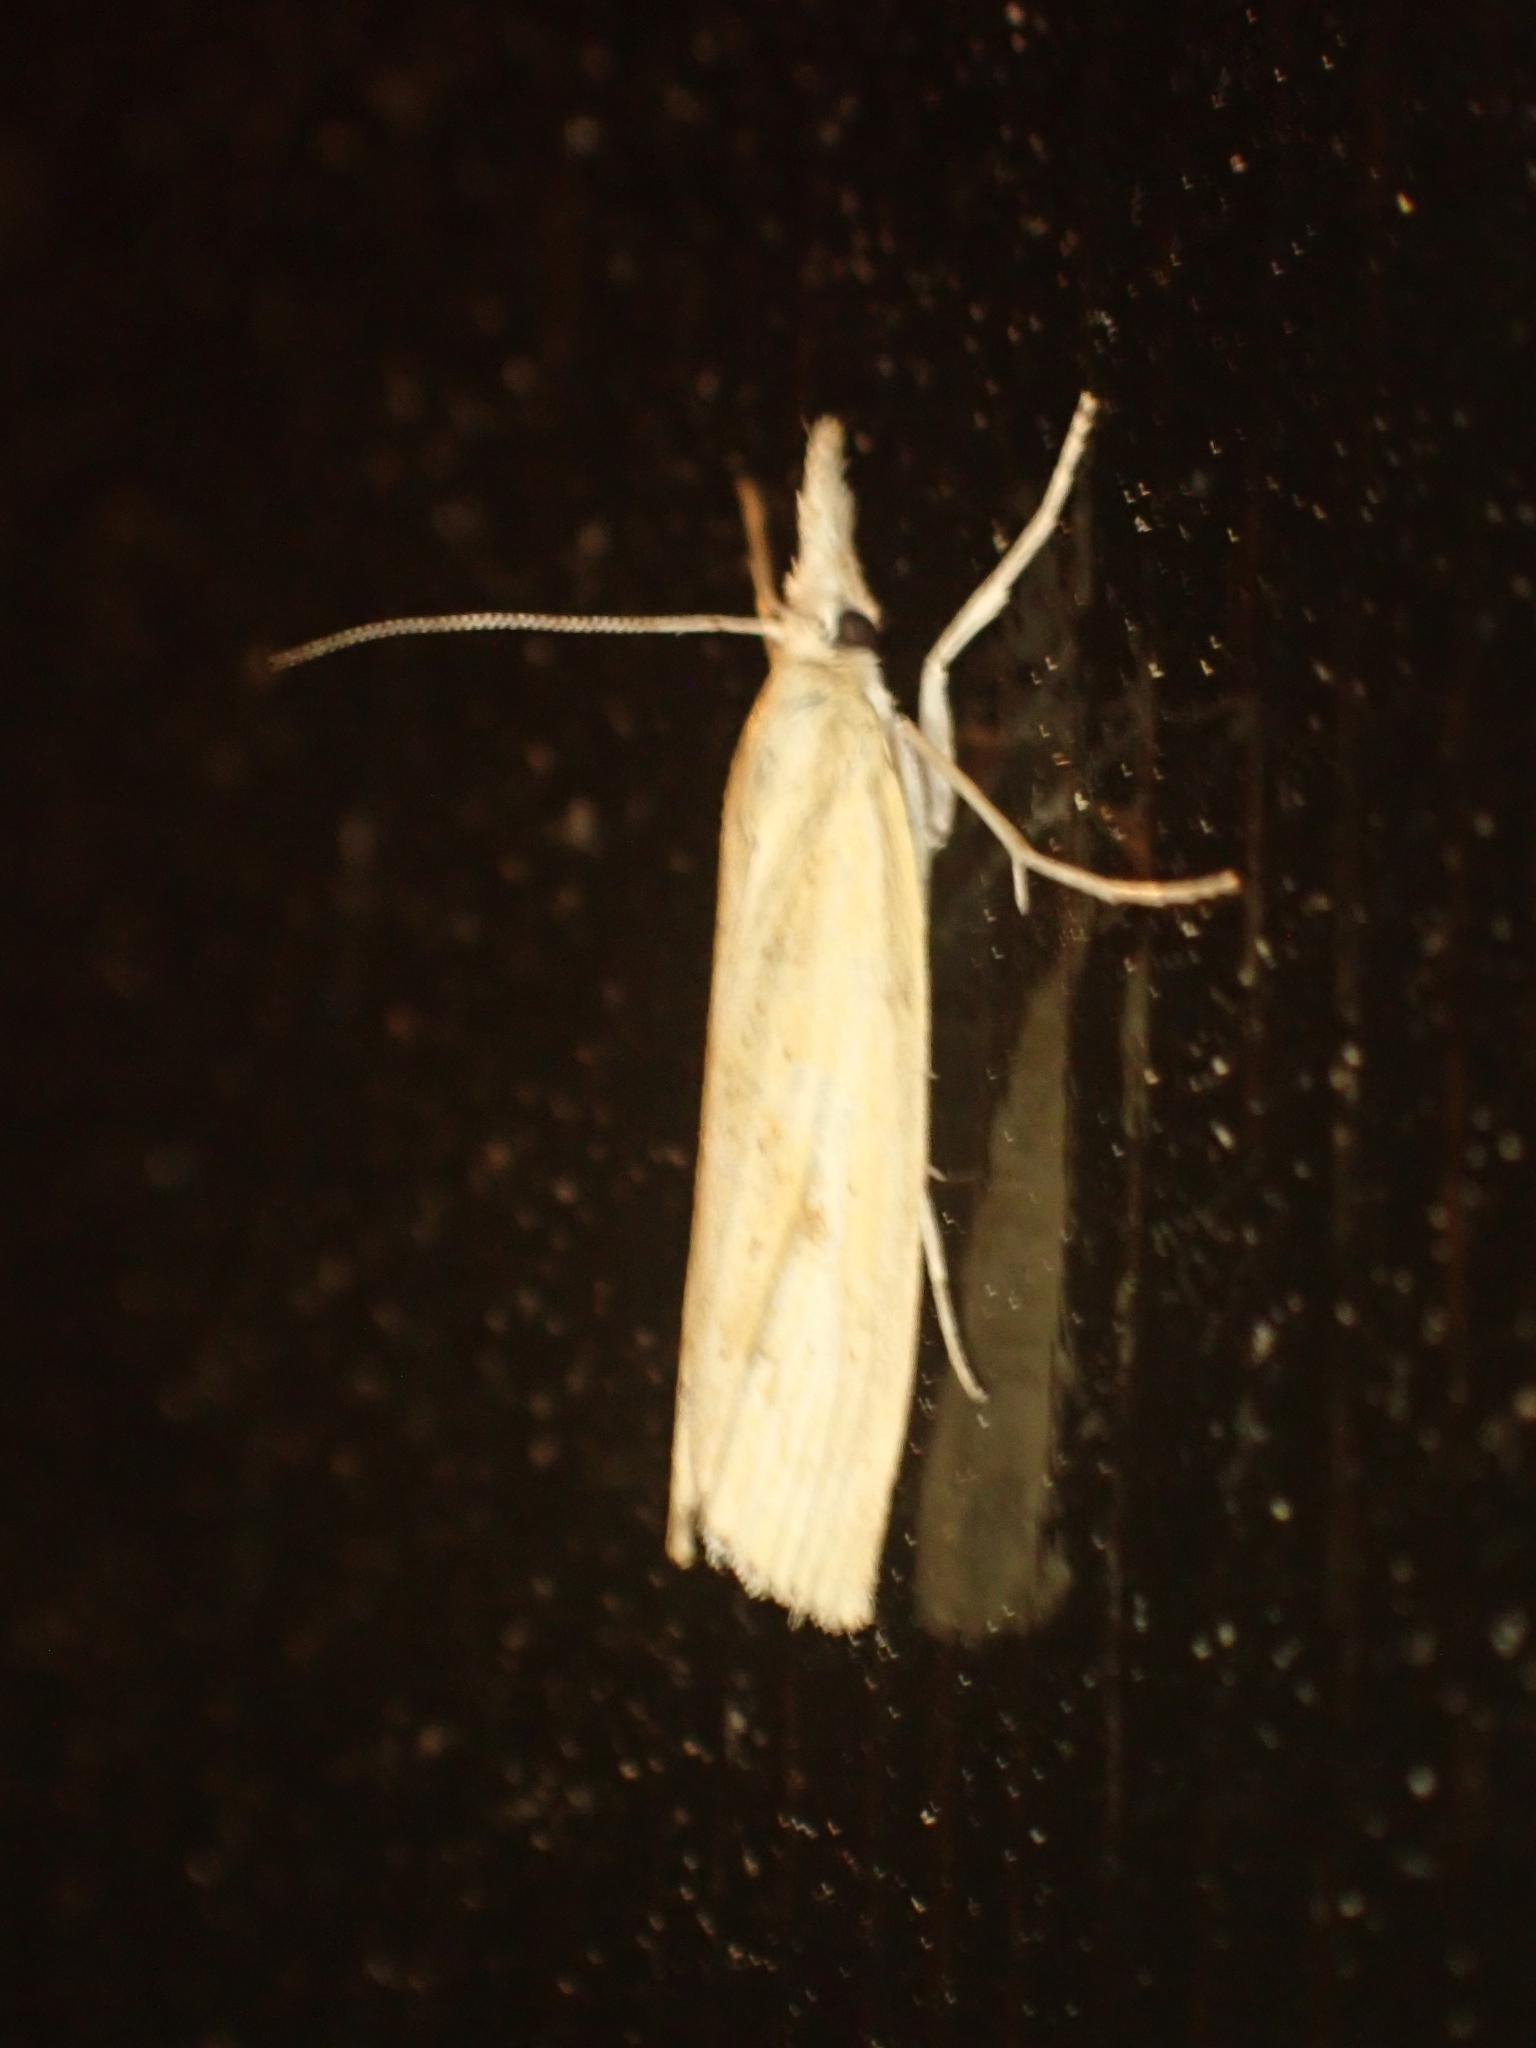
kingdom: Animalia
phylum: Arthropoda
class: Insecta
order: Lepidoptera
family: Crambidae
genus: Agriphila
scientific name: Agriphila inquinatella
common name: Barred grass-veneer
